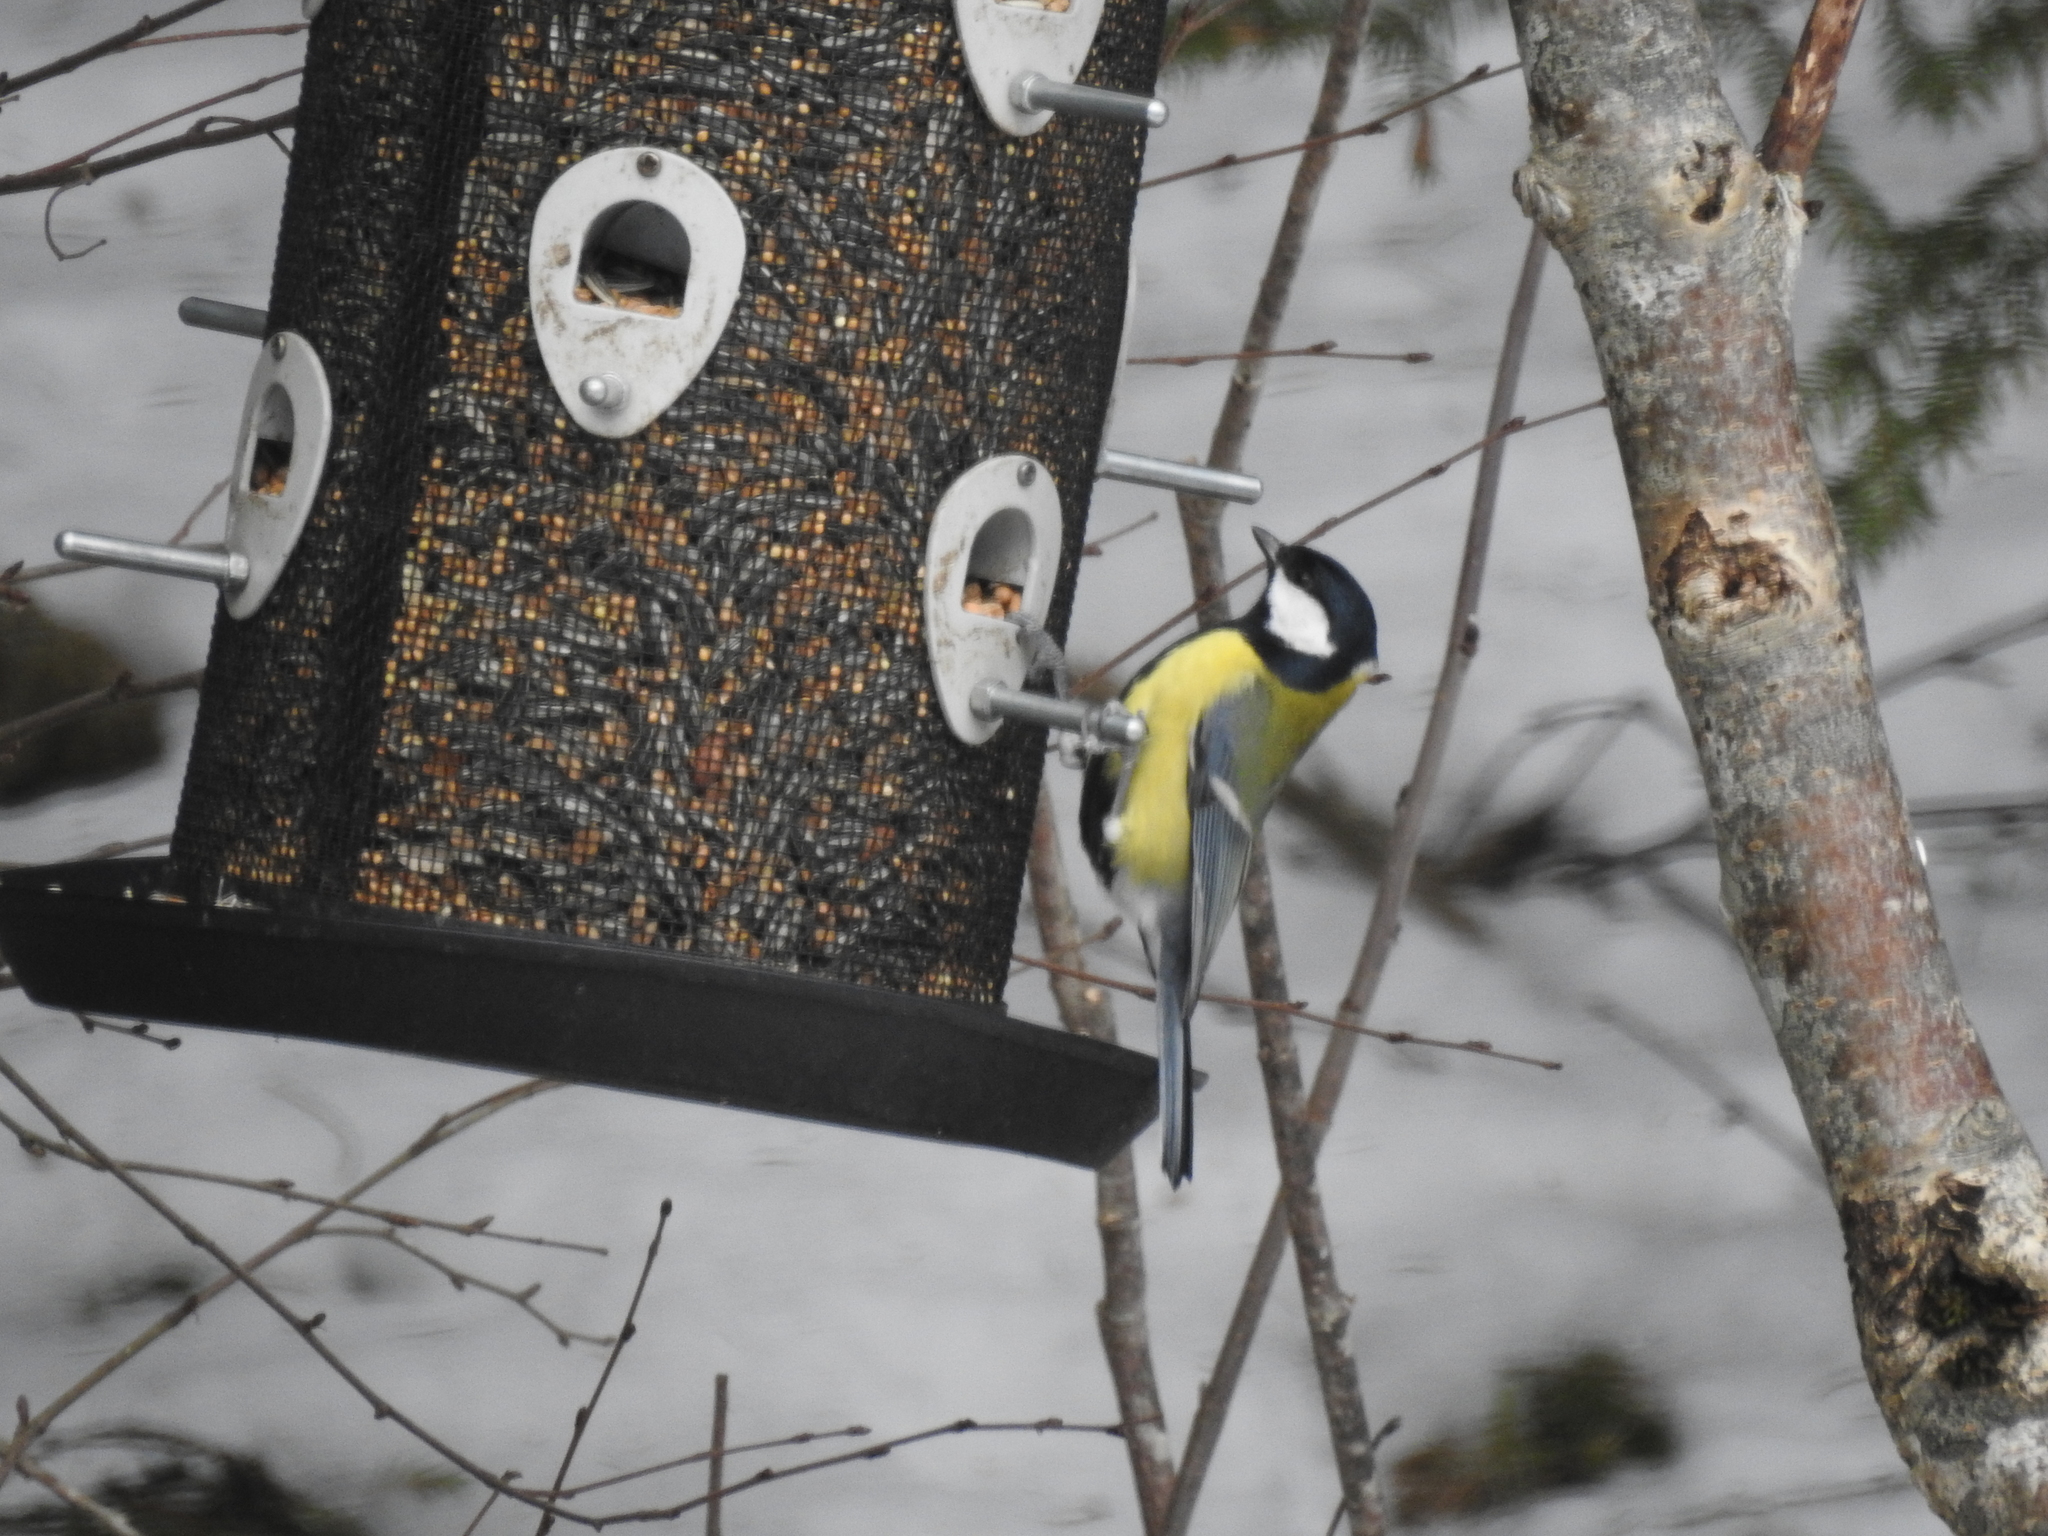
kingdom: Animalia
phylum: Chordata
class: Aves
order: Passeriformes
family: Paridae
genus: Parus
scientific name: Parus major
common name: Great tit
